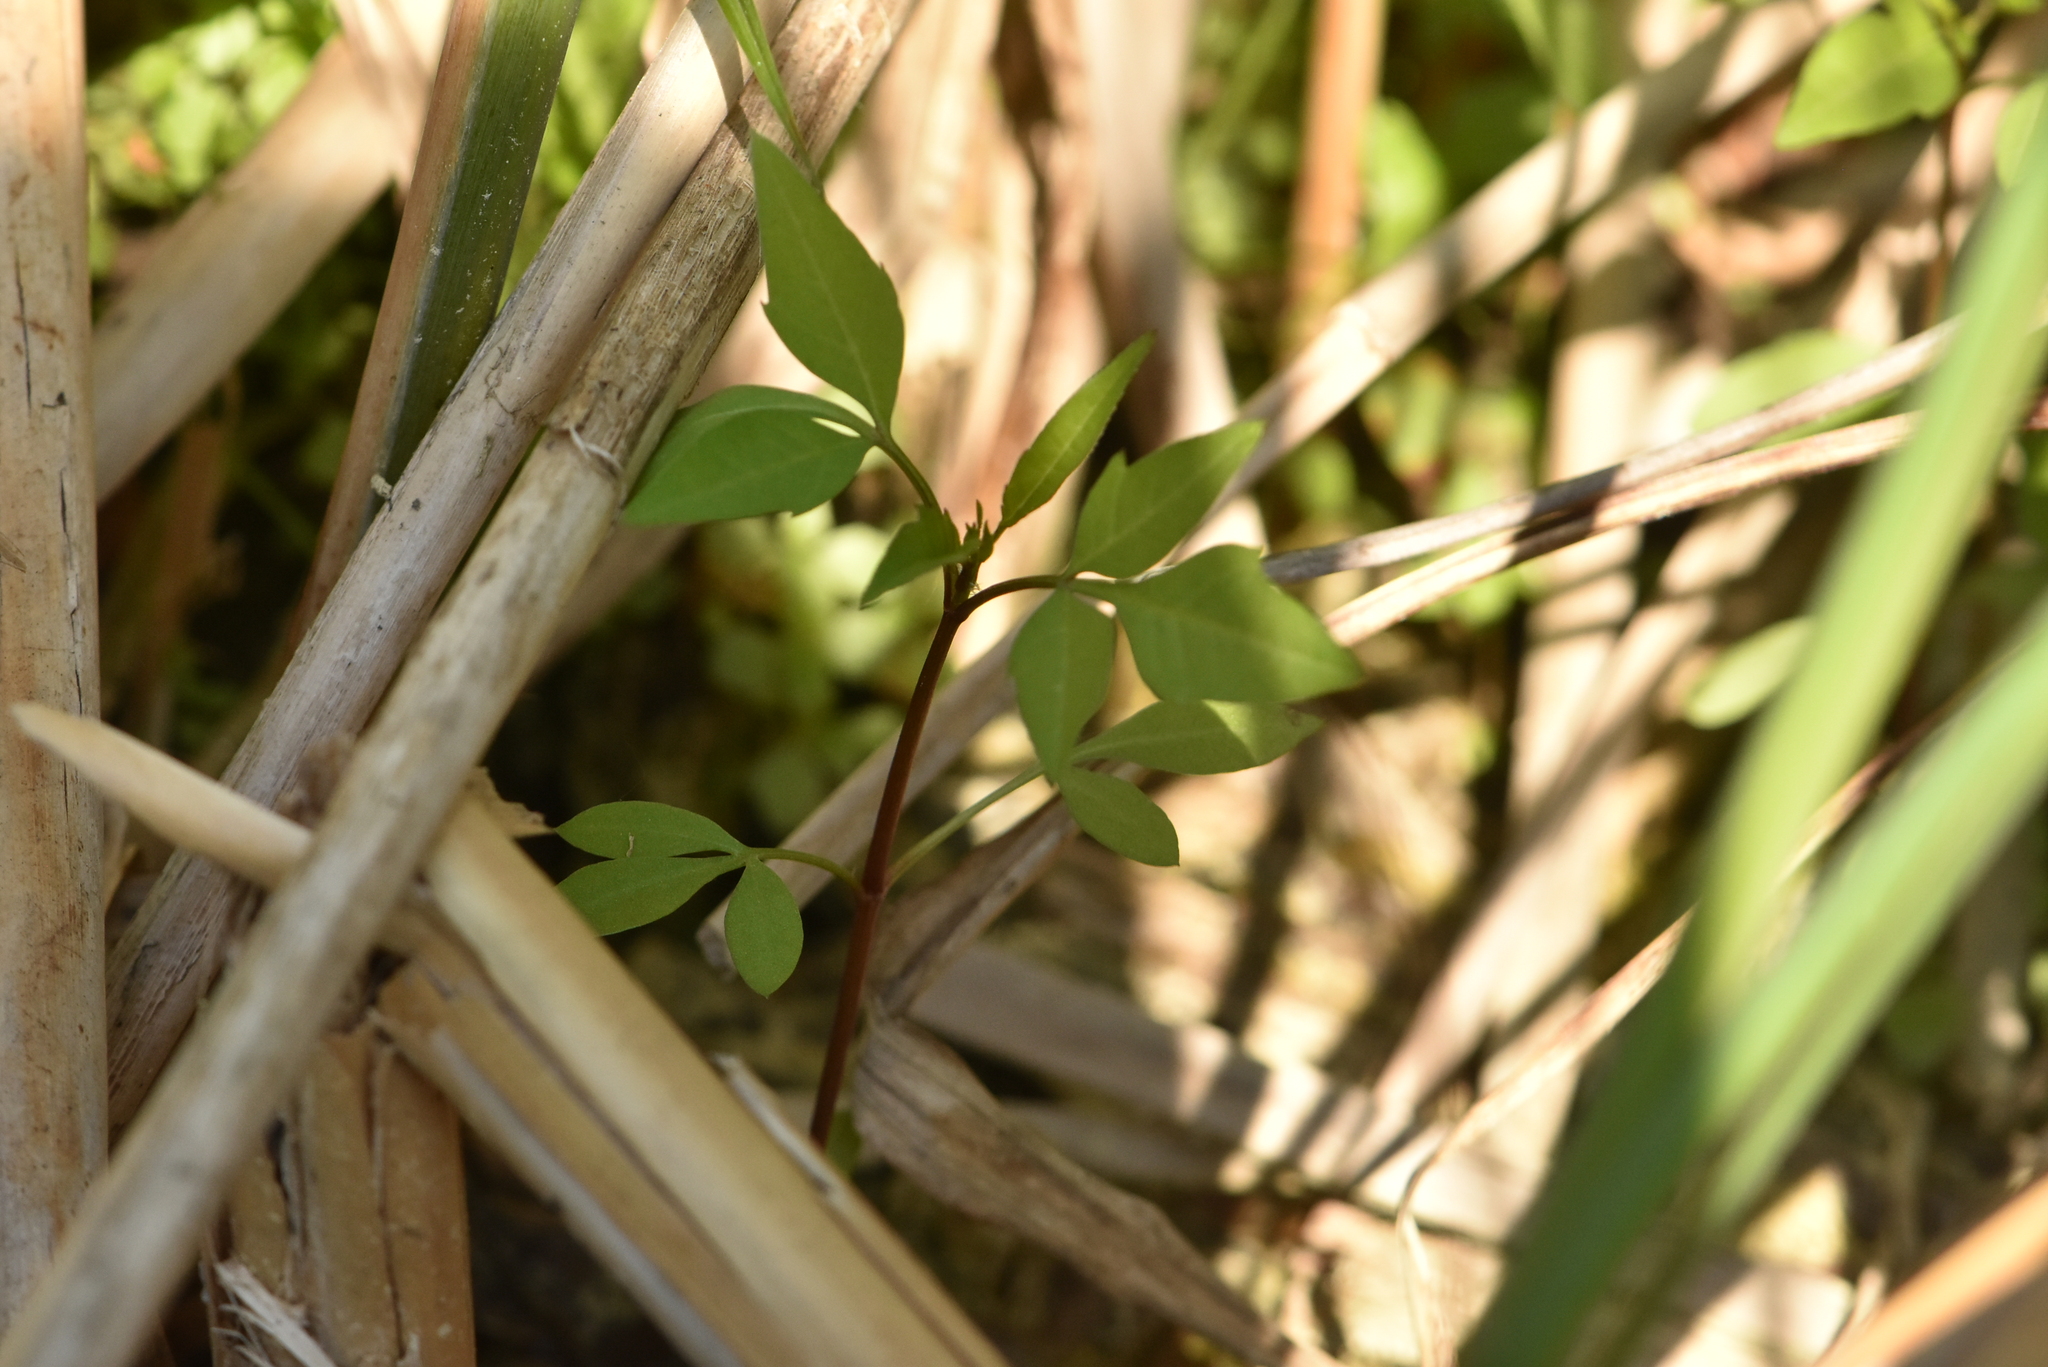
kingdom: Plantae
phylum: Tracheophyta
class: Magnoliopsida
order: Asterales
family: Asteraceae
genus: Bidens
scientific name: Bidens frondosa
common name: Beggarticks
